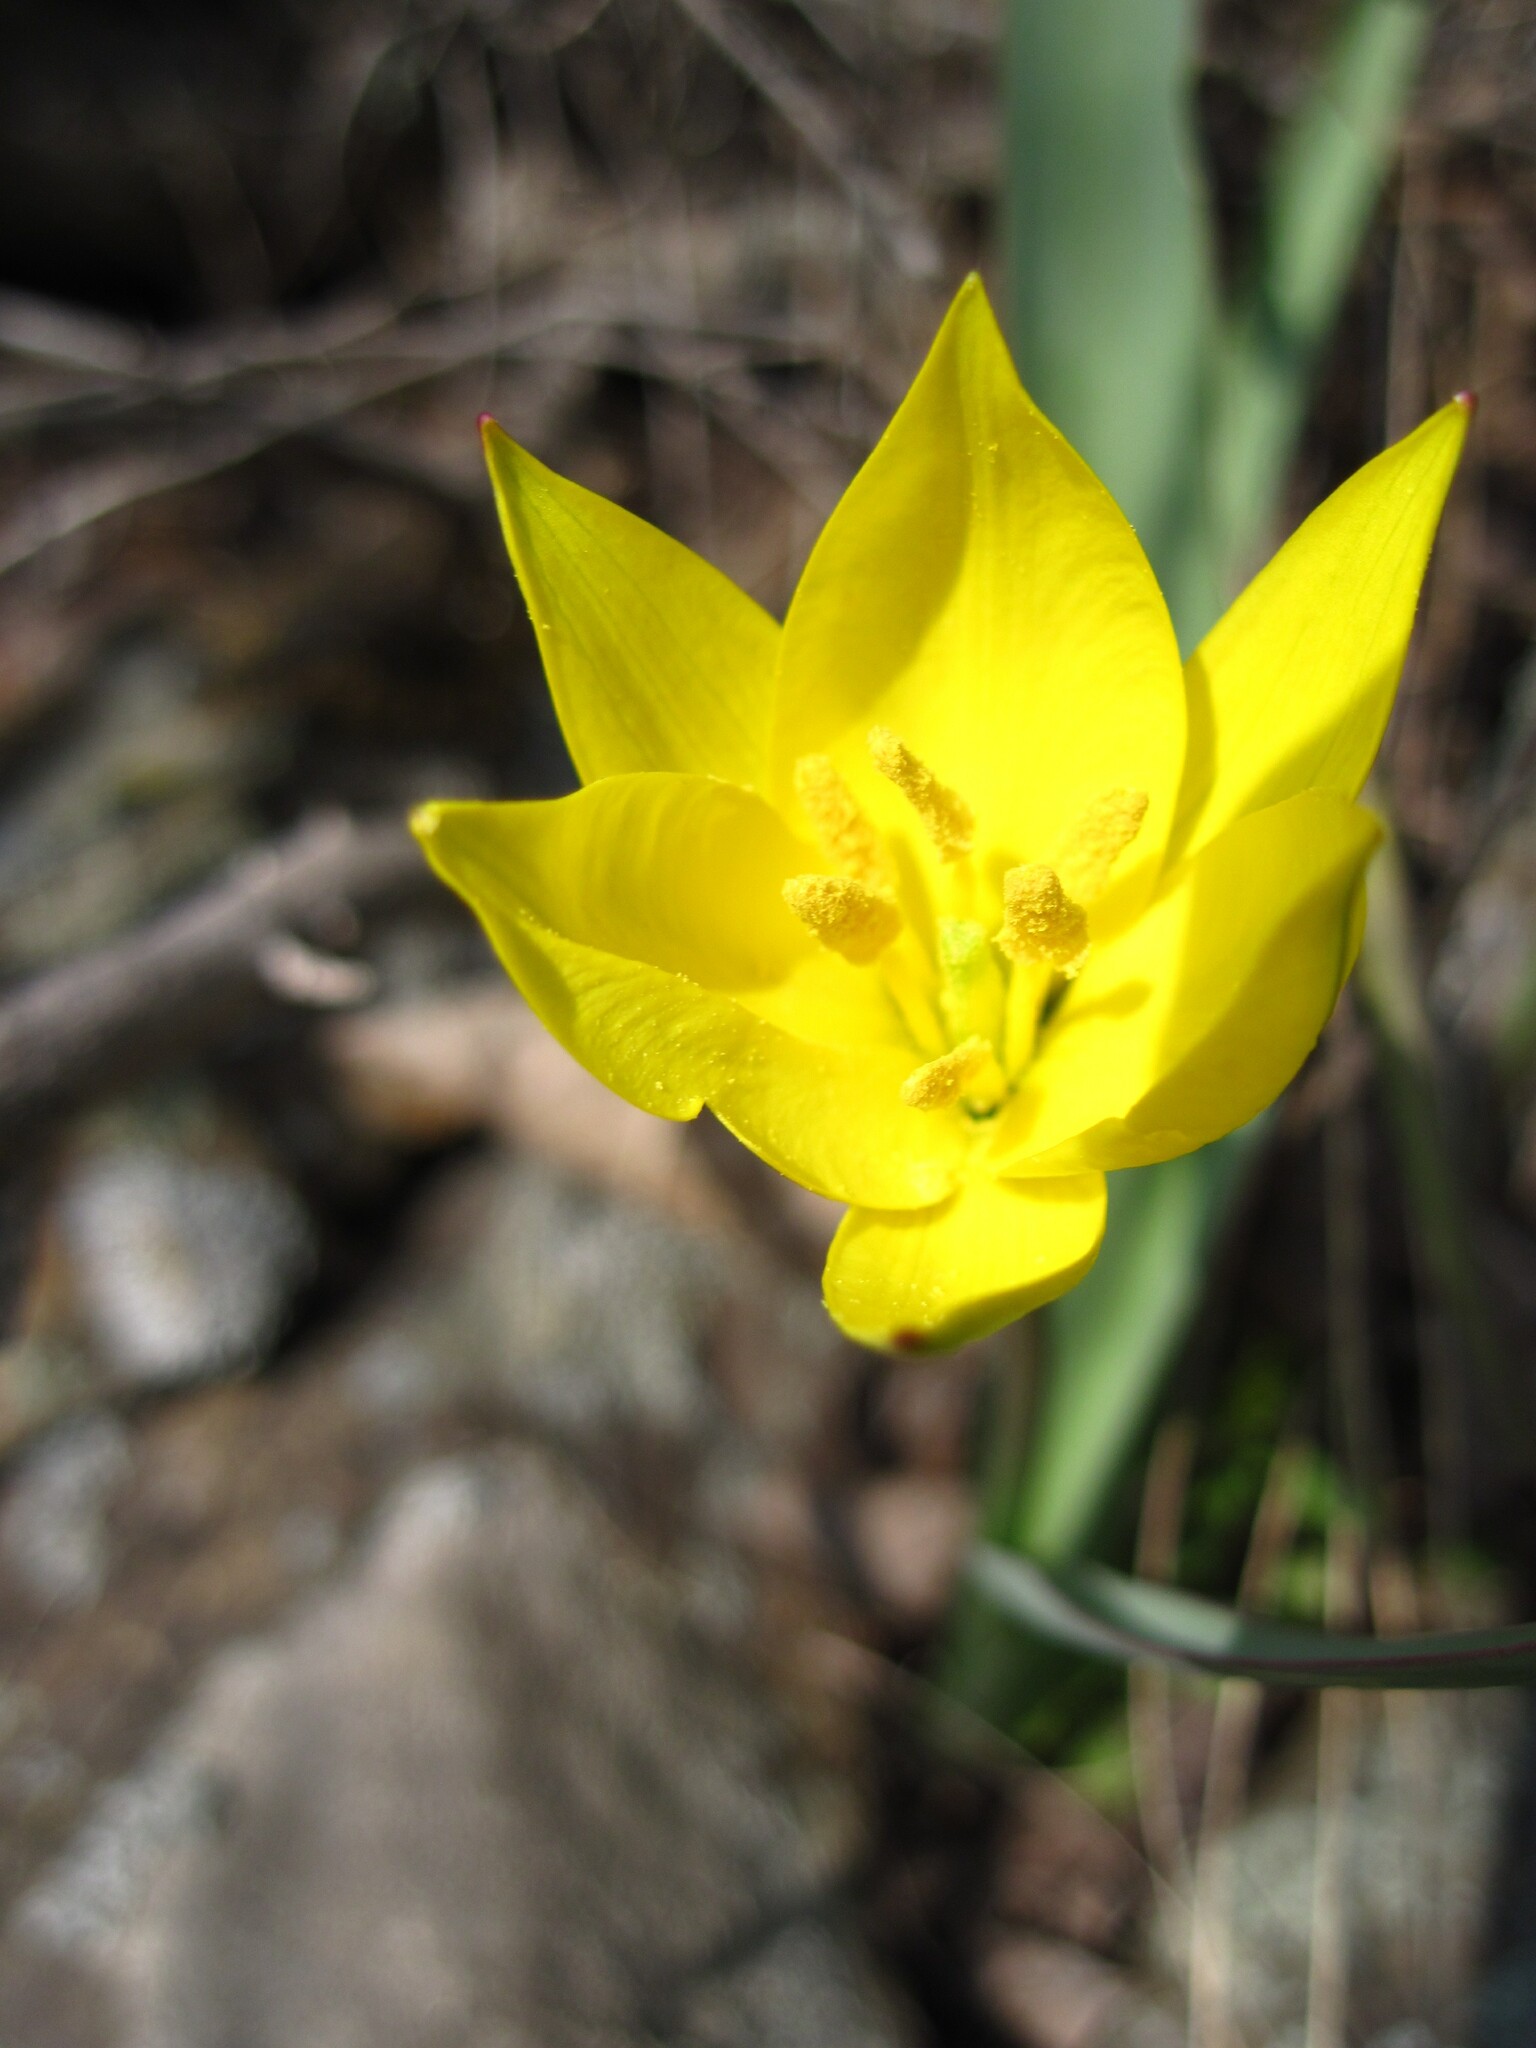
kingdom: Plantae
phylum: Tracheophyta
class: Liliopsida
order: Liliales
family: Liliaceae
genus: Tulipa
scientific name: Tulipa sylvestris
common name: Wild tulip
